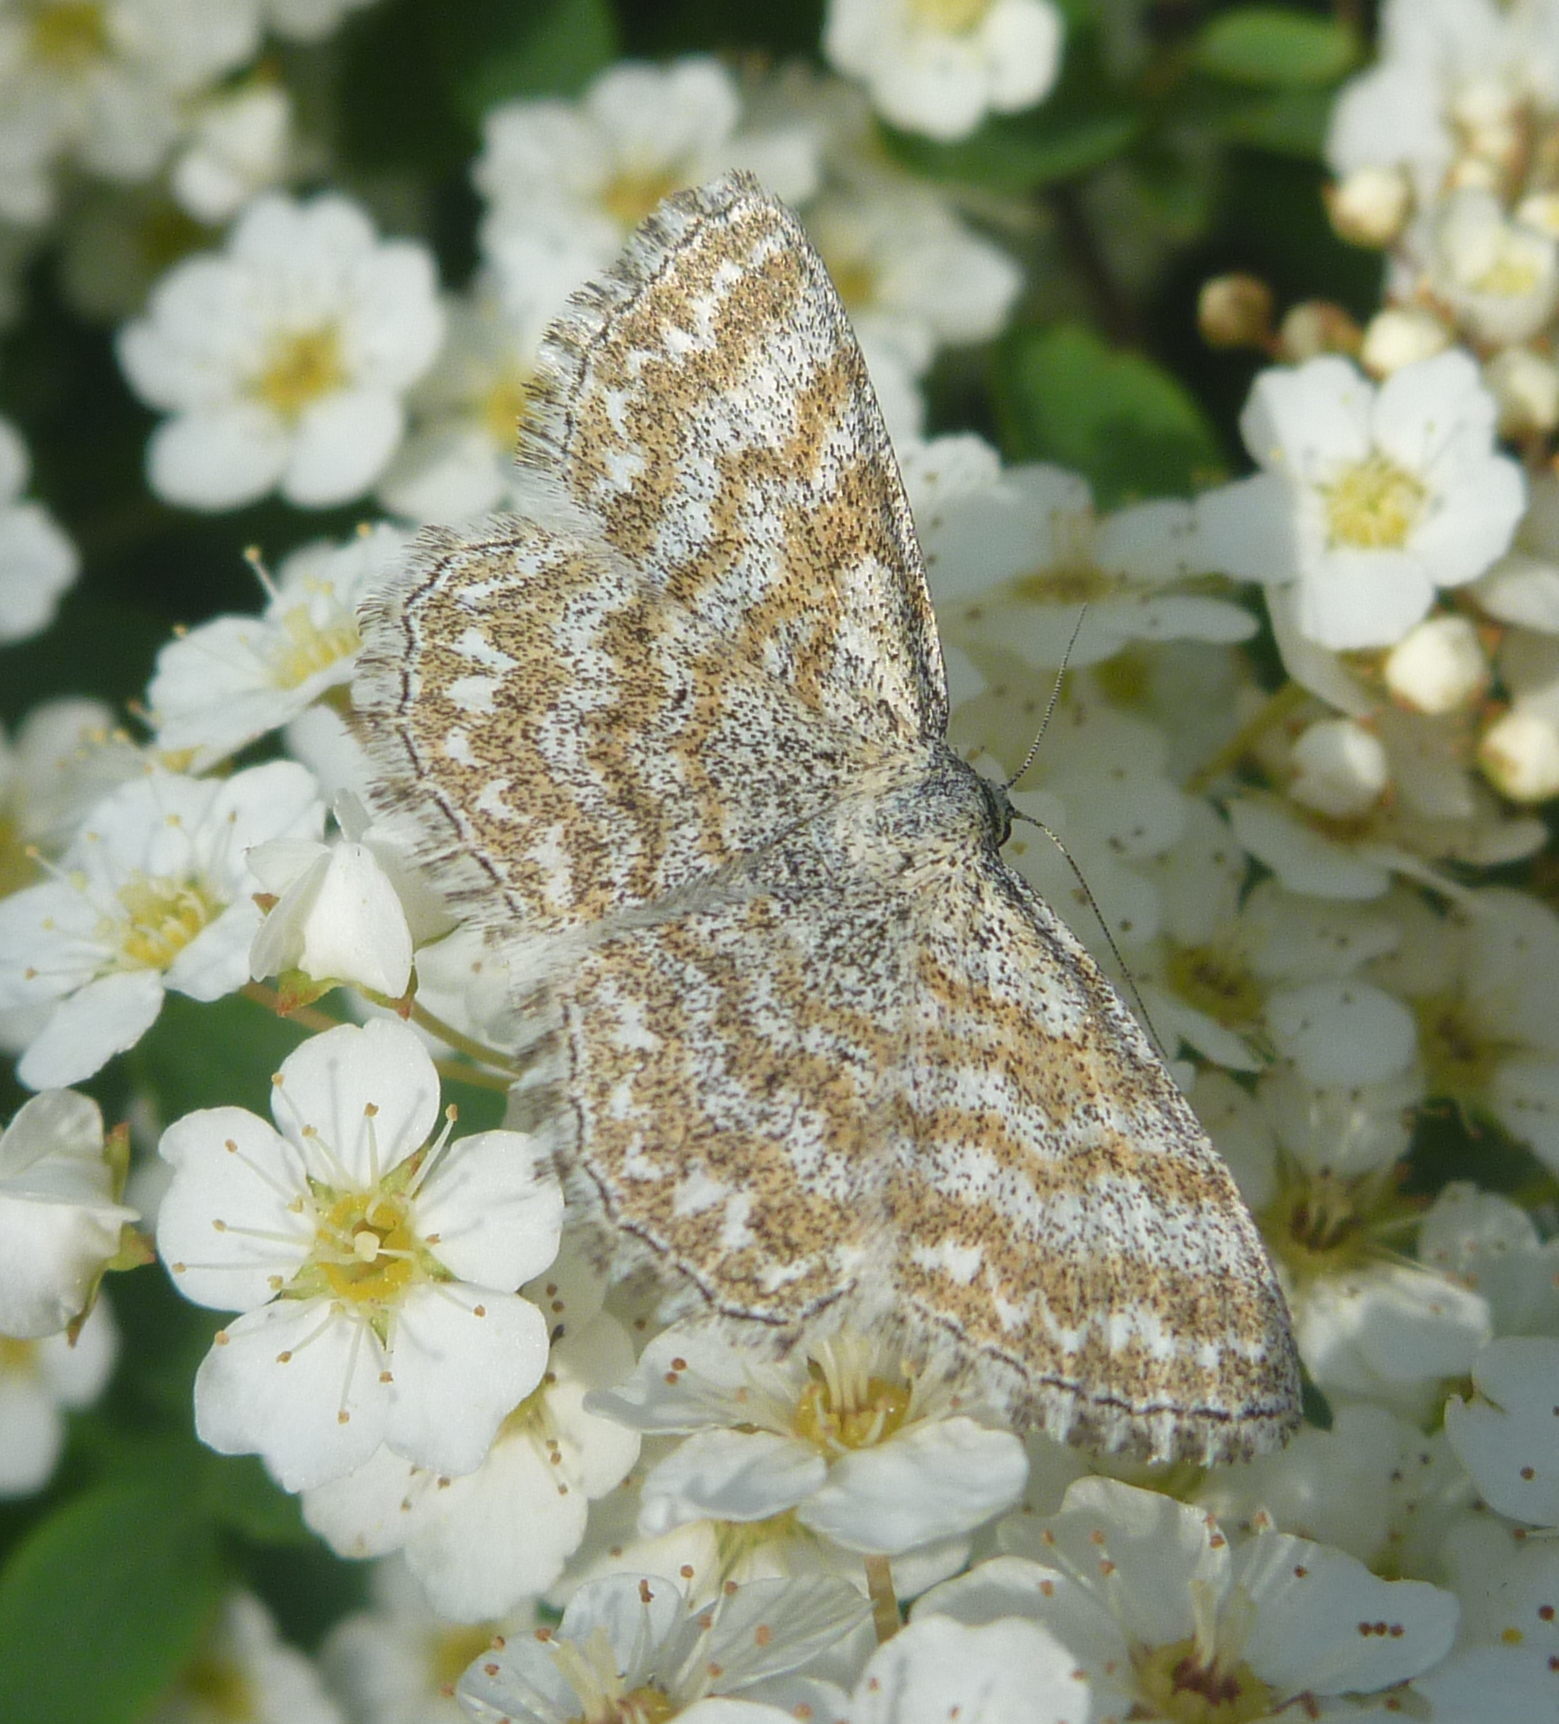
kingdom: Animalia
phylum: Arthropoda
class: Insecta
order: Lepidoptera
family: Geometridae
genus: Scopula
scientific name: Scopula immorata
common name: Lewes wave
